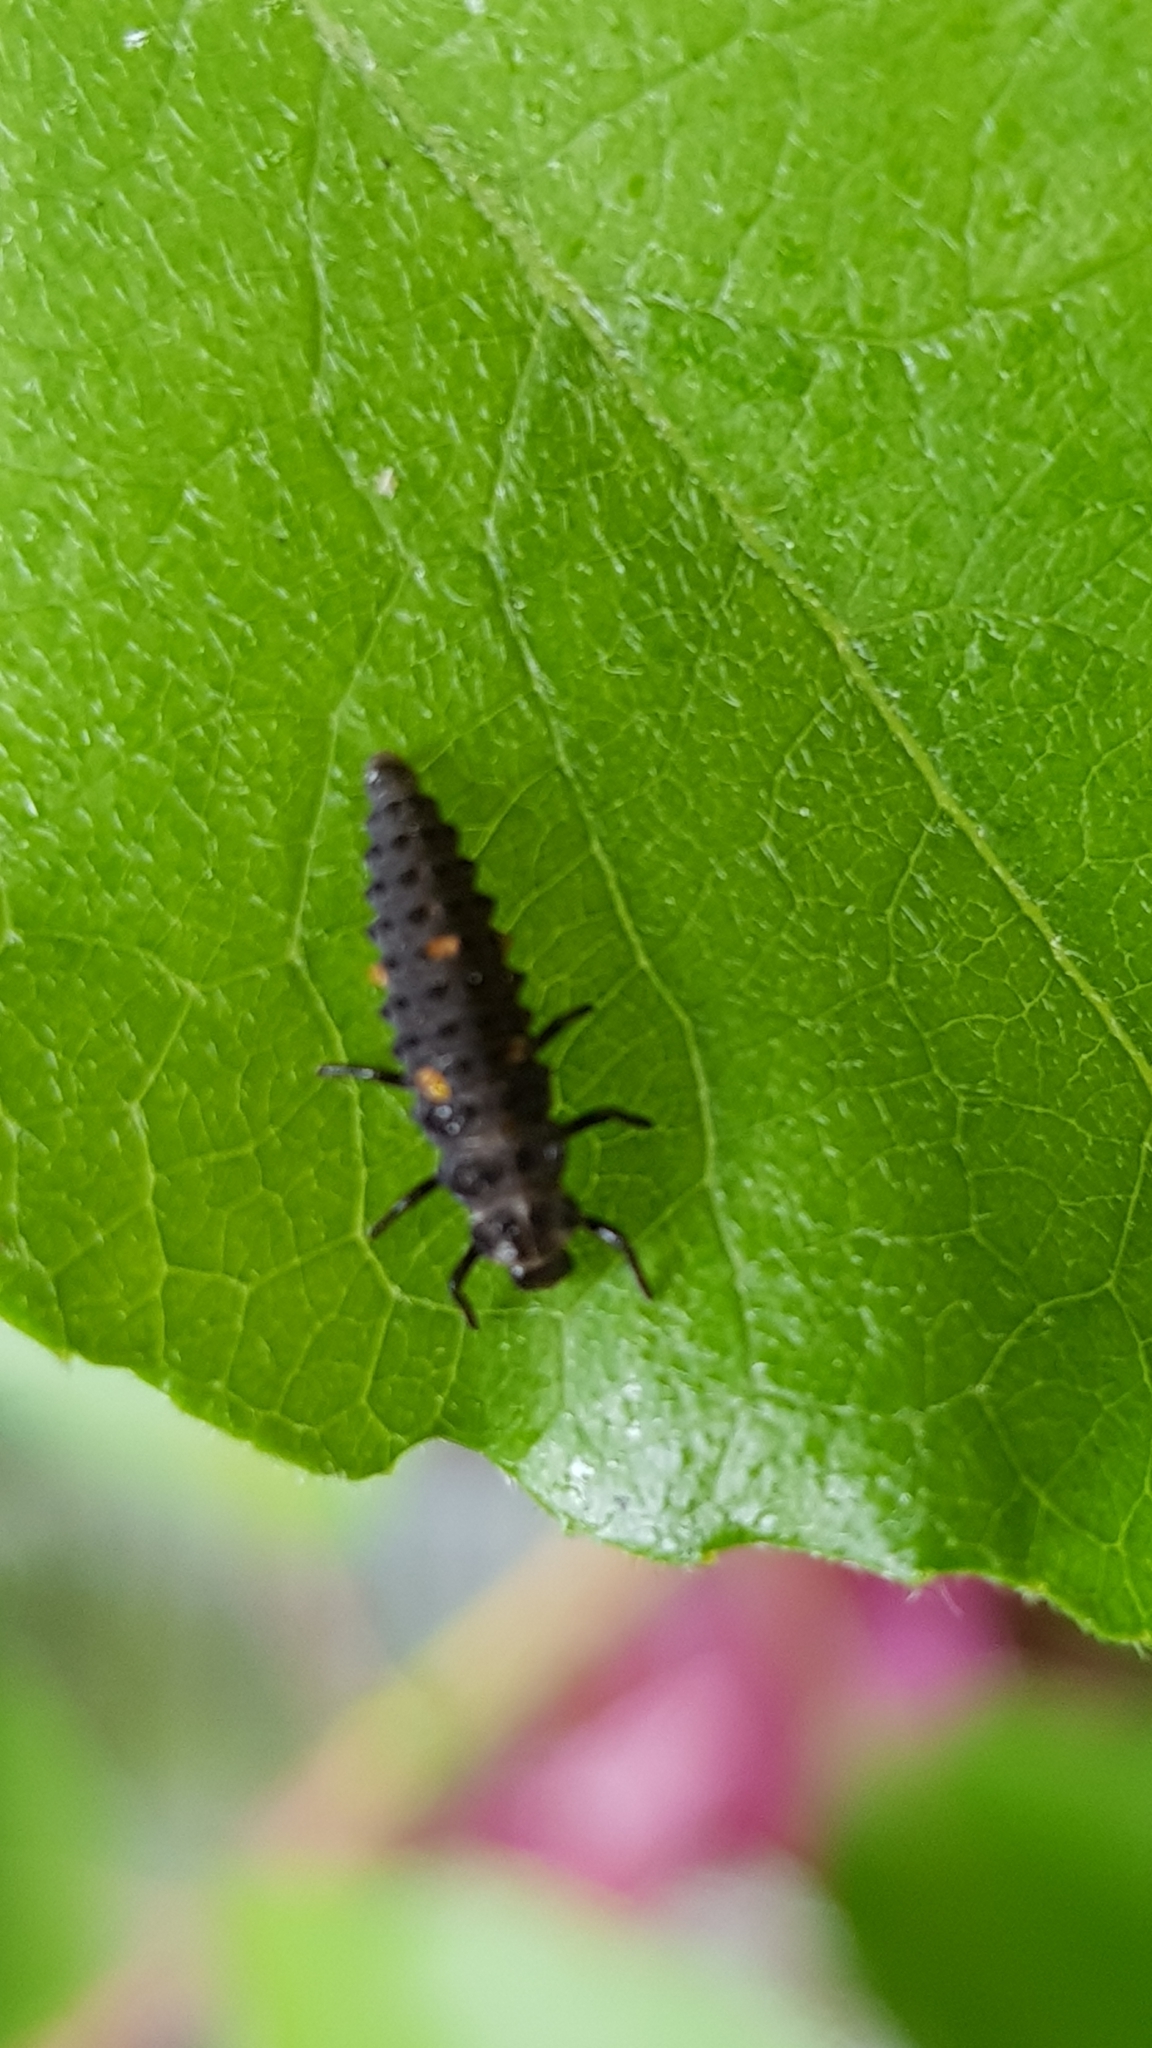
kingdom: Animalia
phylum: Arthropoda
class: Insecta
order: Coleoptera
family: Coccinellidae
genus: Adalia
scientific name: Adalia bipunctata
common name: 2-spot ladybird
